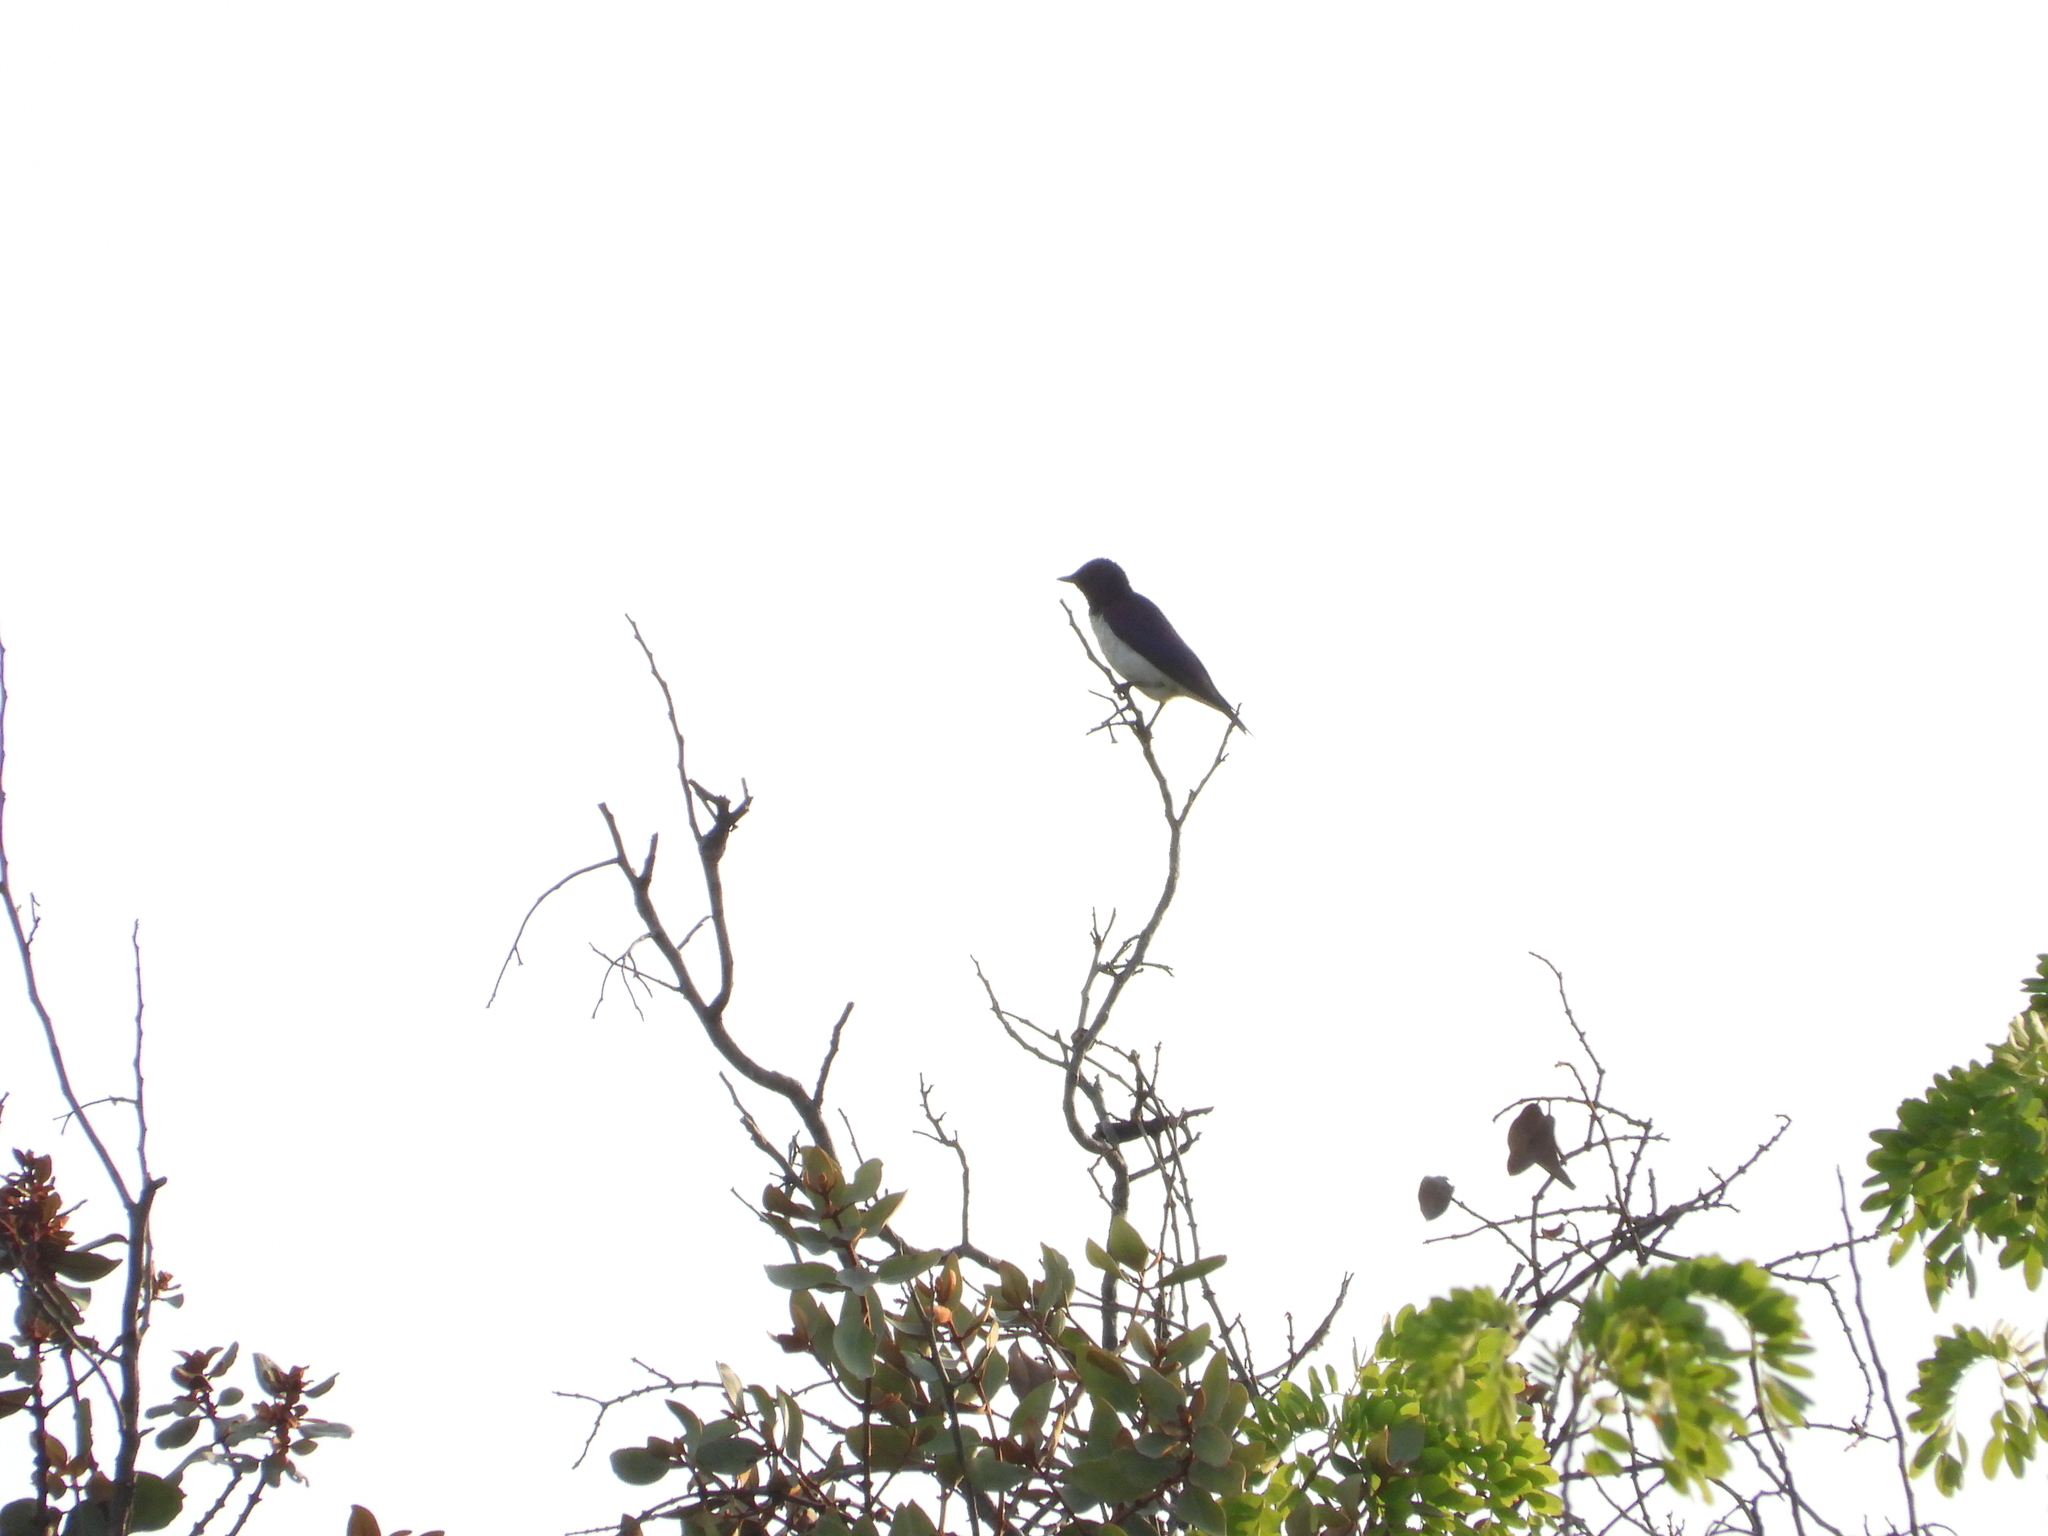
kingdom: Animalia
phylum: Chordata
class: Aves
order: Passeriformes
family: Sturnidae
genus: Cinnyricinclus
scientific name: Cinnyricinclus leucogaster
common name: Violet-backed starling
